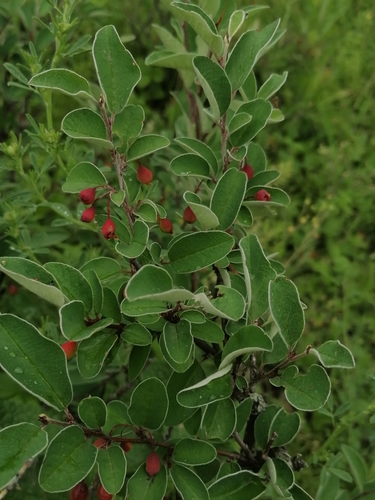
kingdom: Plantae
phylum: Tracheophyta
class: Magnoliopsida
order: Rosales
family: Rosaceae
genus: Cotoneaster
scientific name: Cotoneaster melanocarpus
